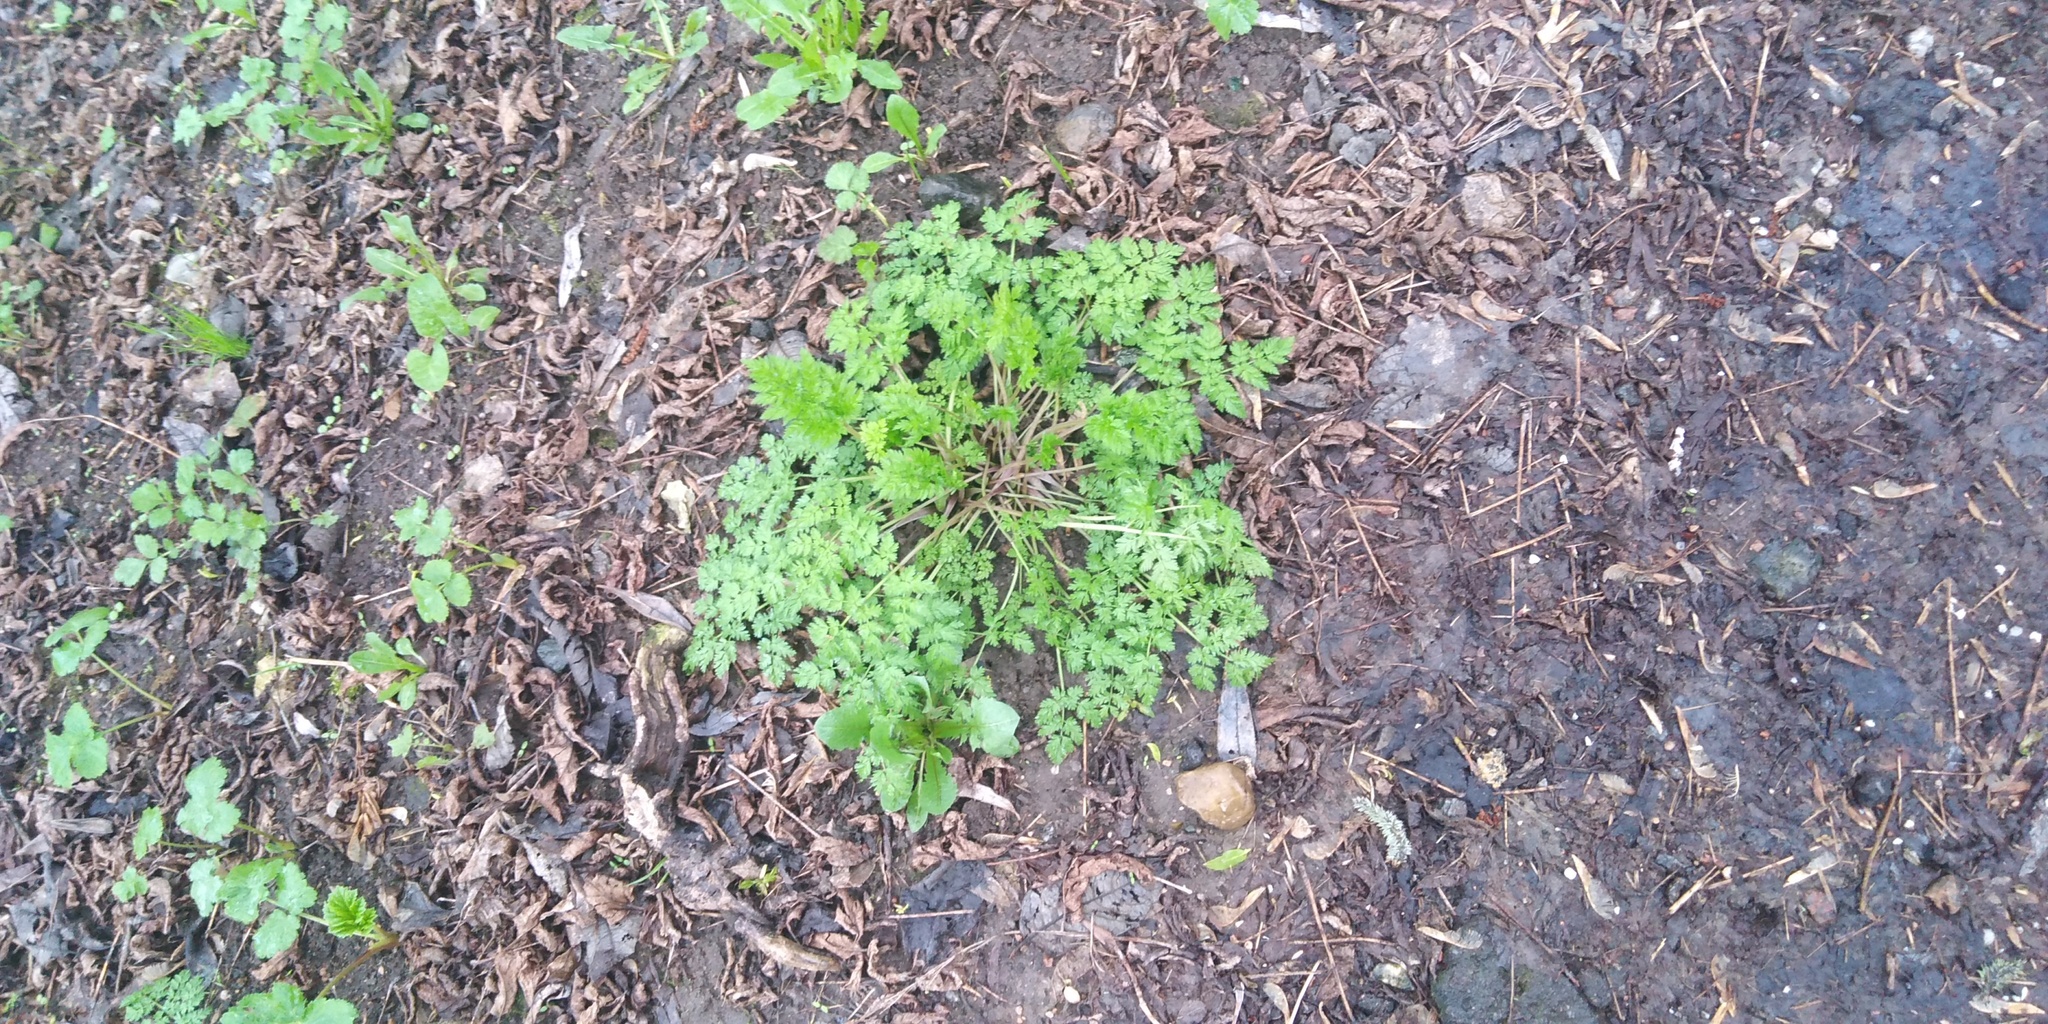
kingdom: Plantae
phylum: Tracheophyta
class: Magnoliopsida
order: Apiales
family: Apiaceae
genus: Anthriscus
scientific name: Anthriscus sylvestris
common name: Cow parsley
